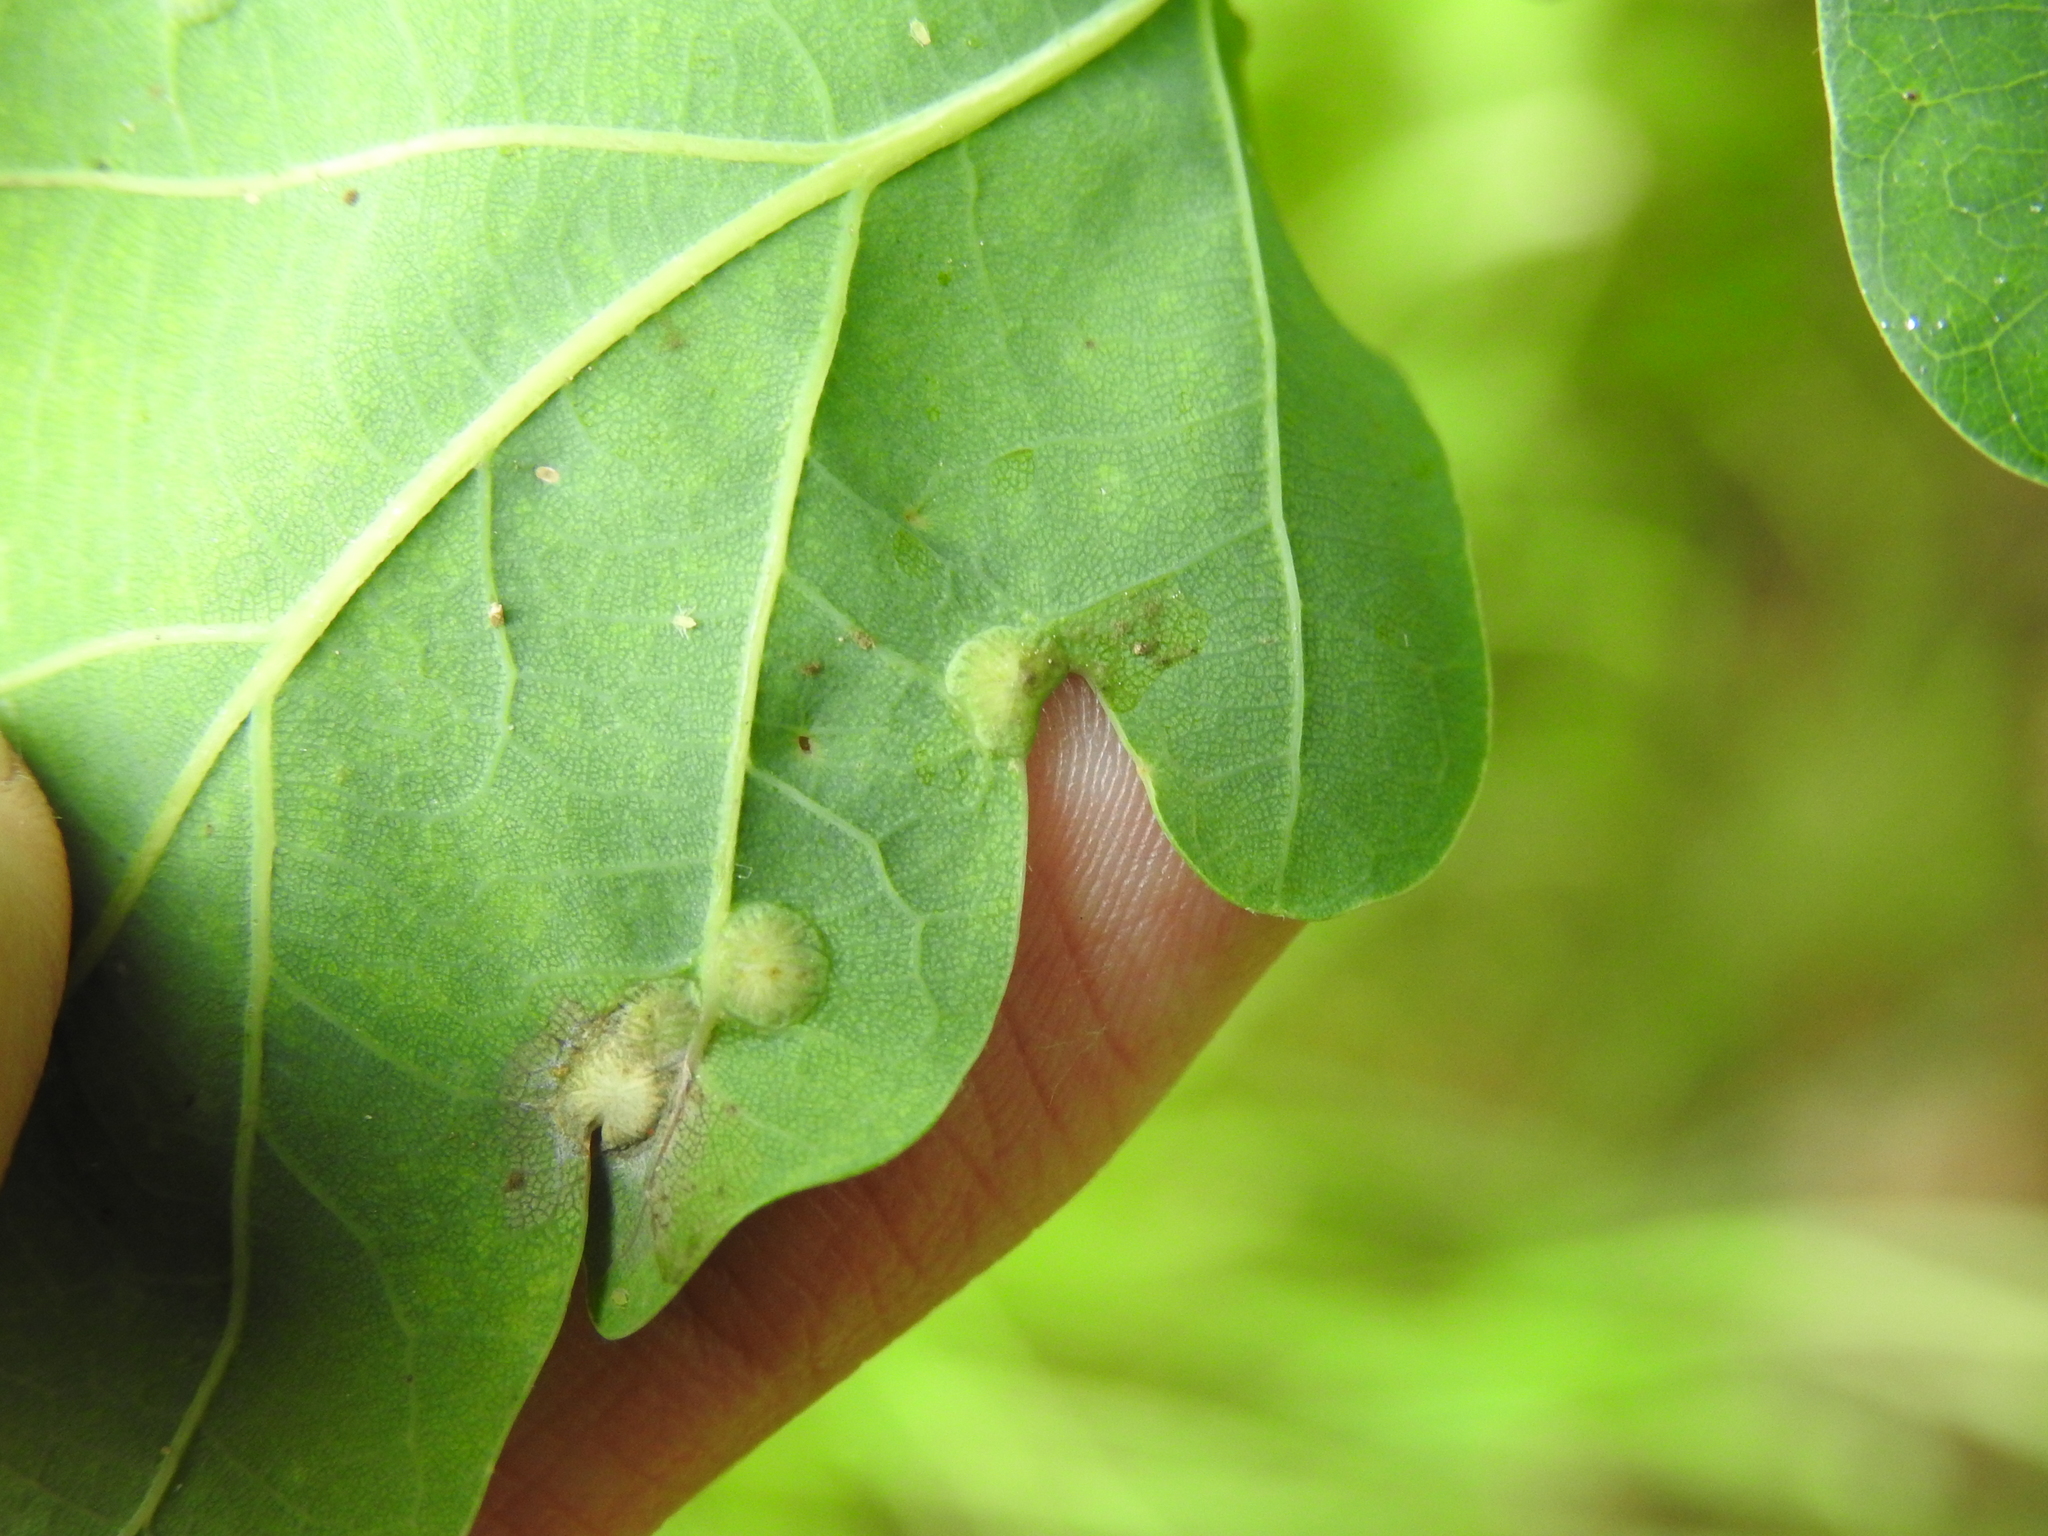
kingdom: Animalia
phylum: Arthropoda
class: Insecta
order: Hymenoptera
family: Cynipidae
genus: Neuroterus
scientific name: Neuroterus numismalis
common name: Silk-button spangle gall
